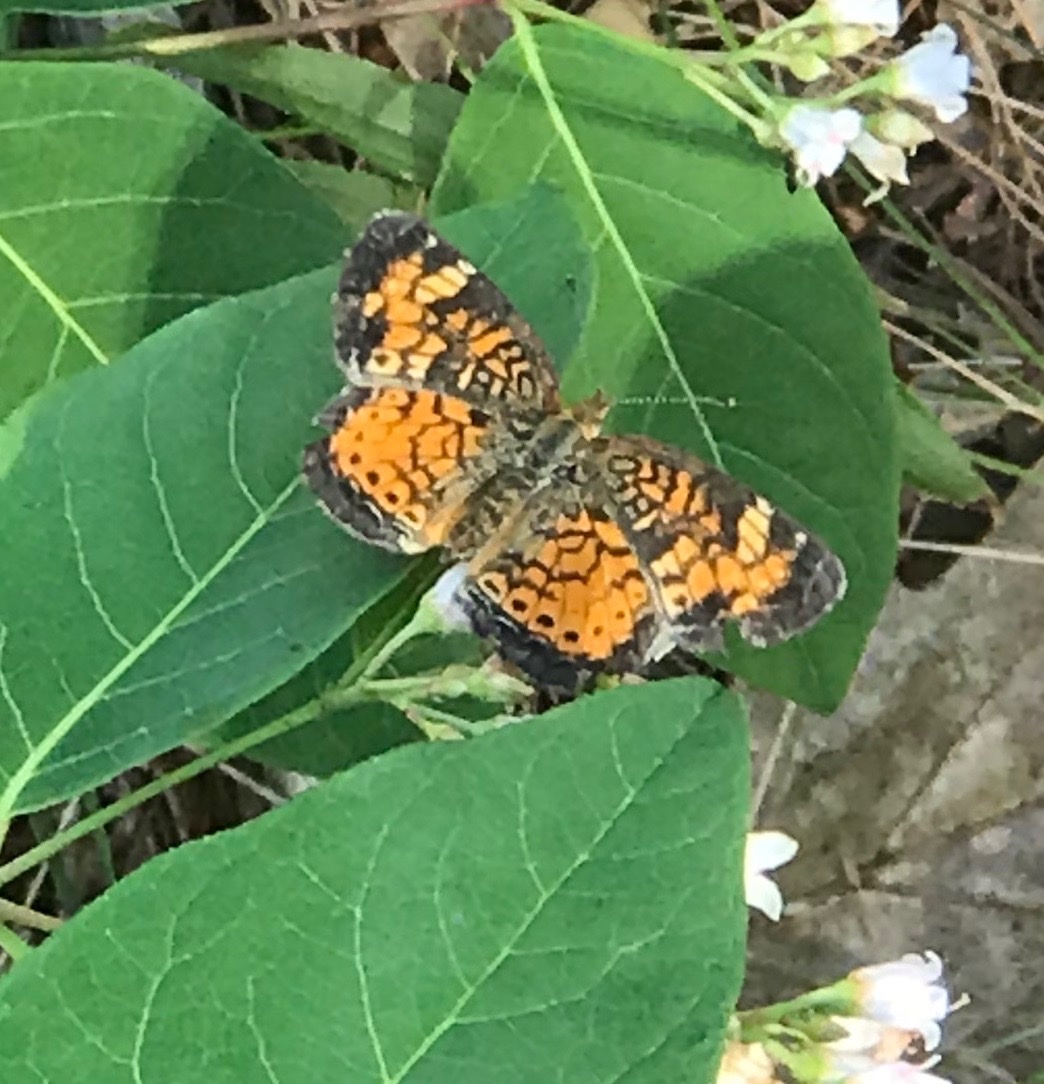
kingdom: Animalia
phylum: Arthropoda
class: Insecta
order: Lepidoptera
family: Nymphalidae
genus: Phyciodes
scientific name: Phyciodes tharos
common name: Pearl crescent
